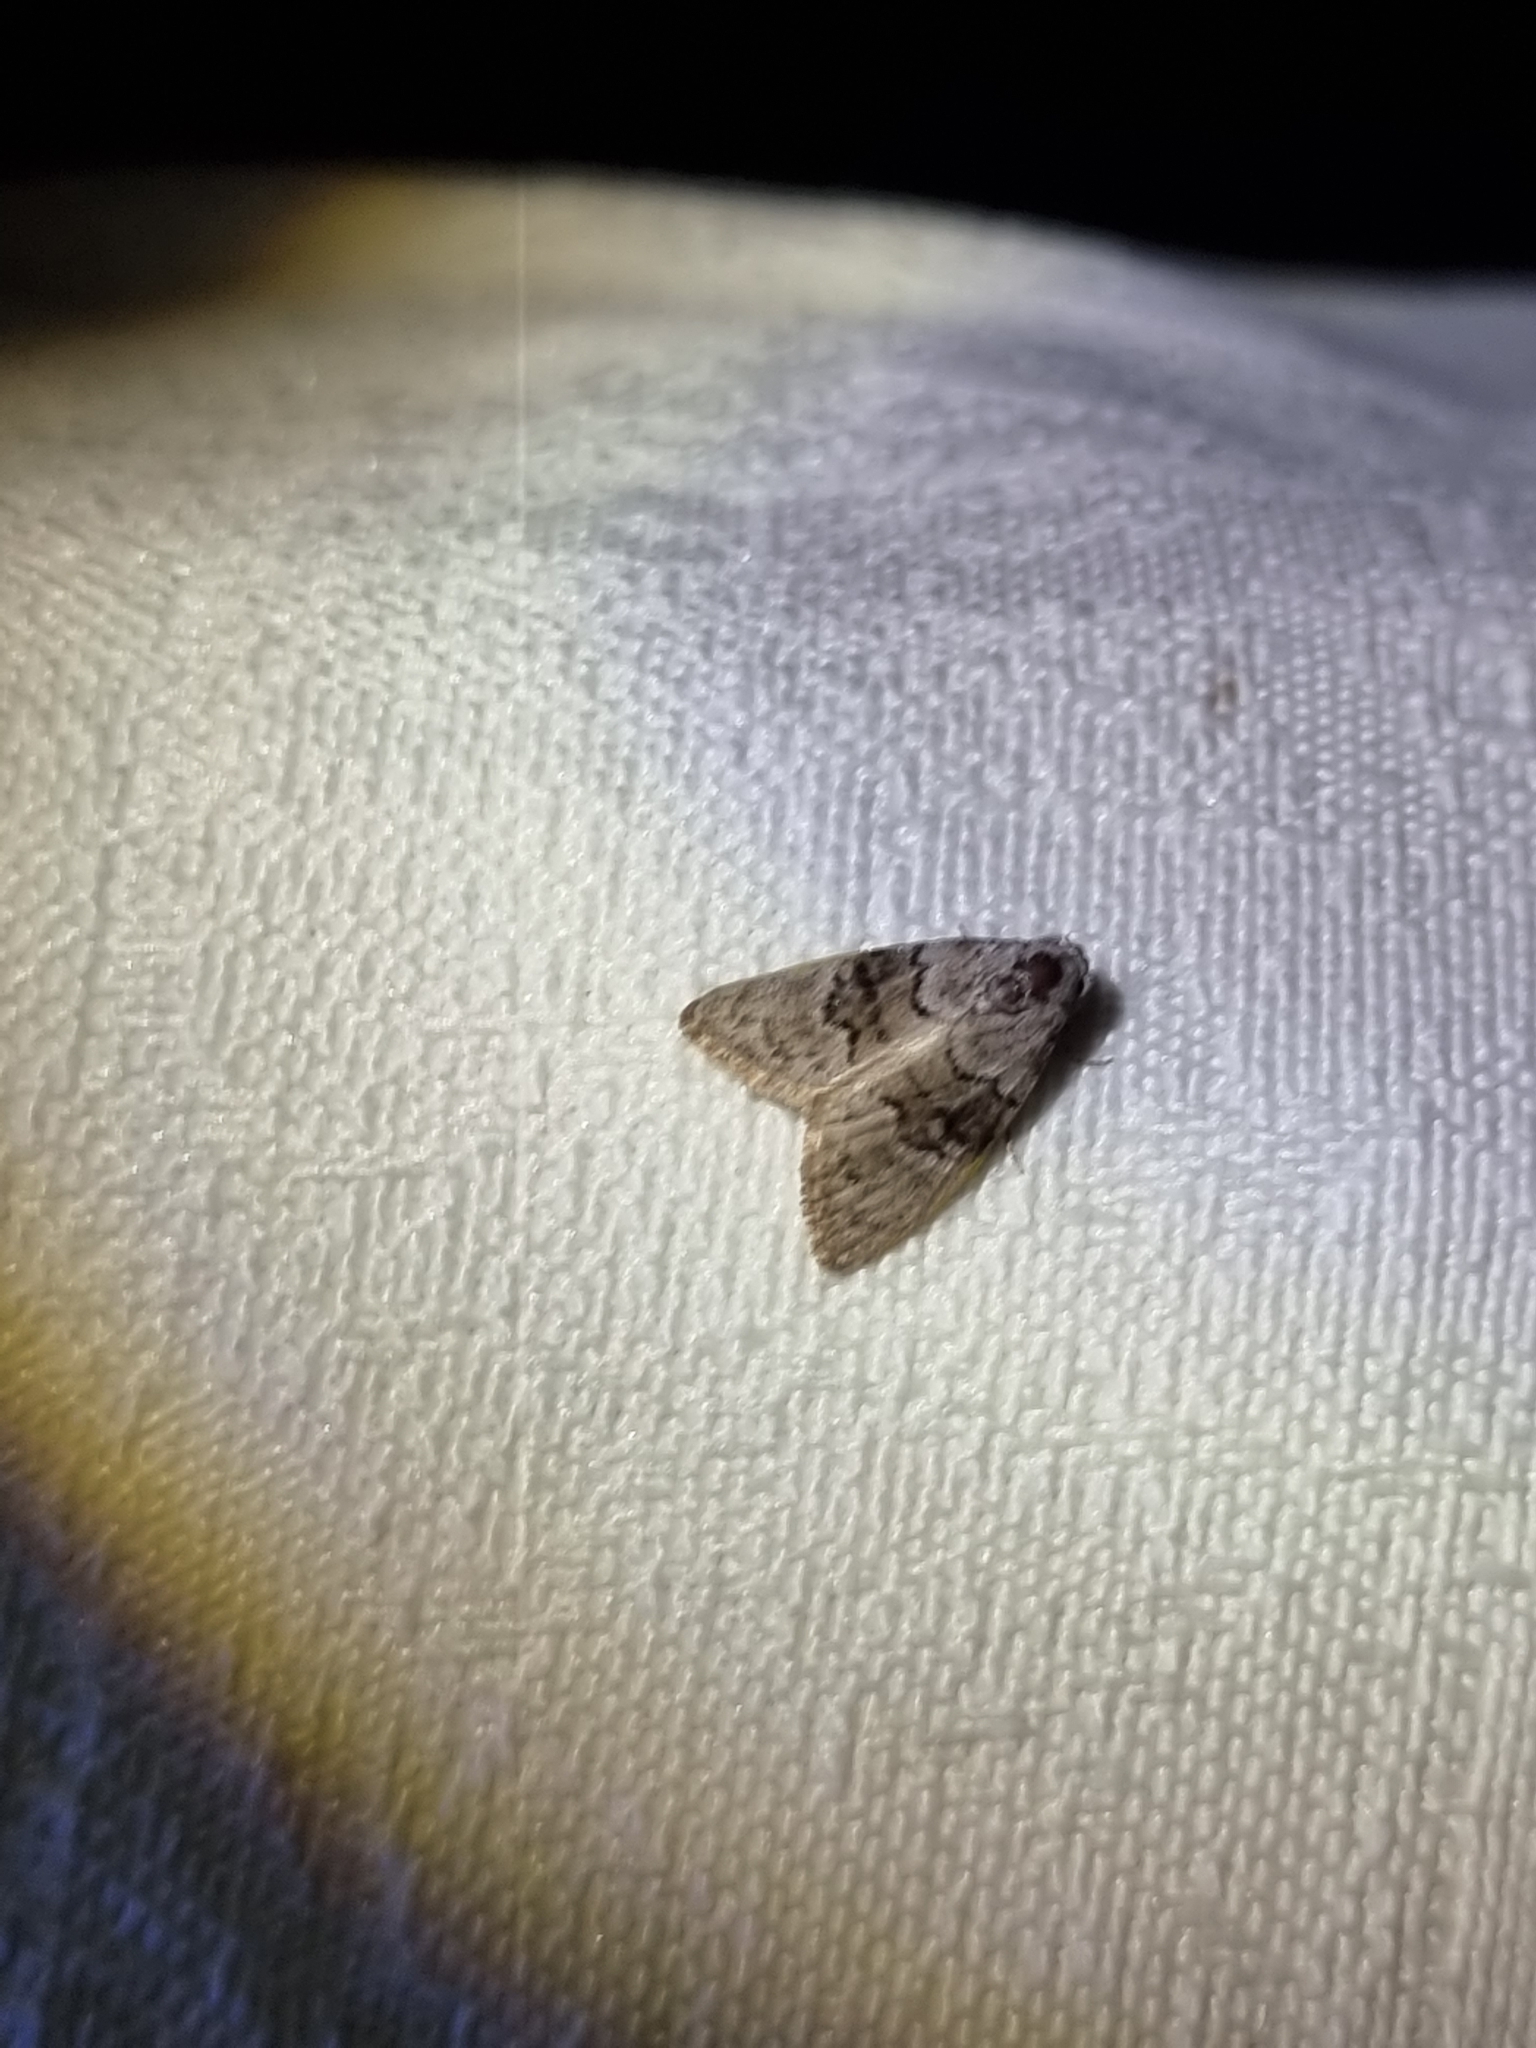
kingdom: Animalia
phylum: Arthropoda
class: Insecta
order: Lepidoptera
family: Nolidae
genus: Uraba
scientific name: Uraba lugens
